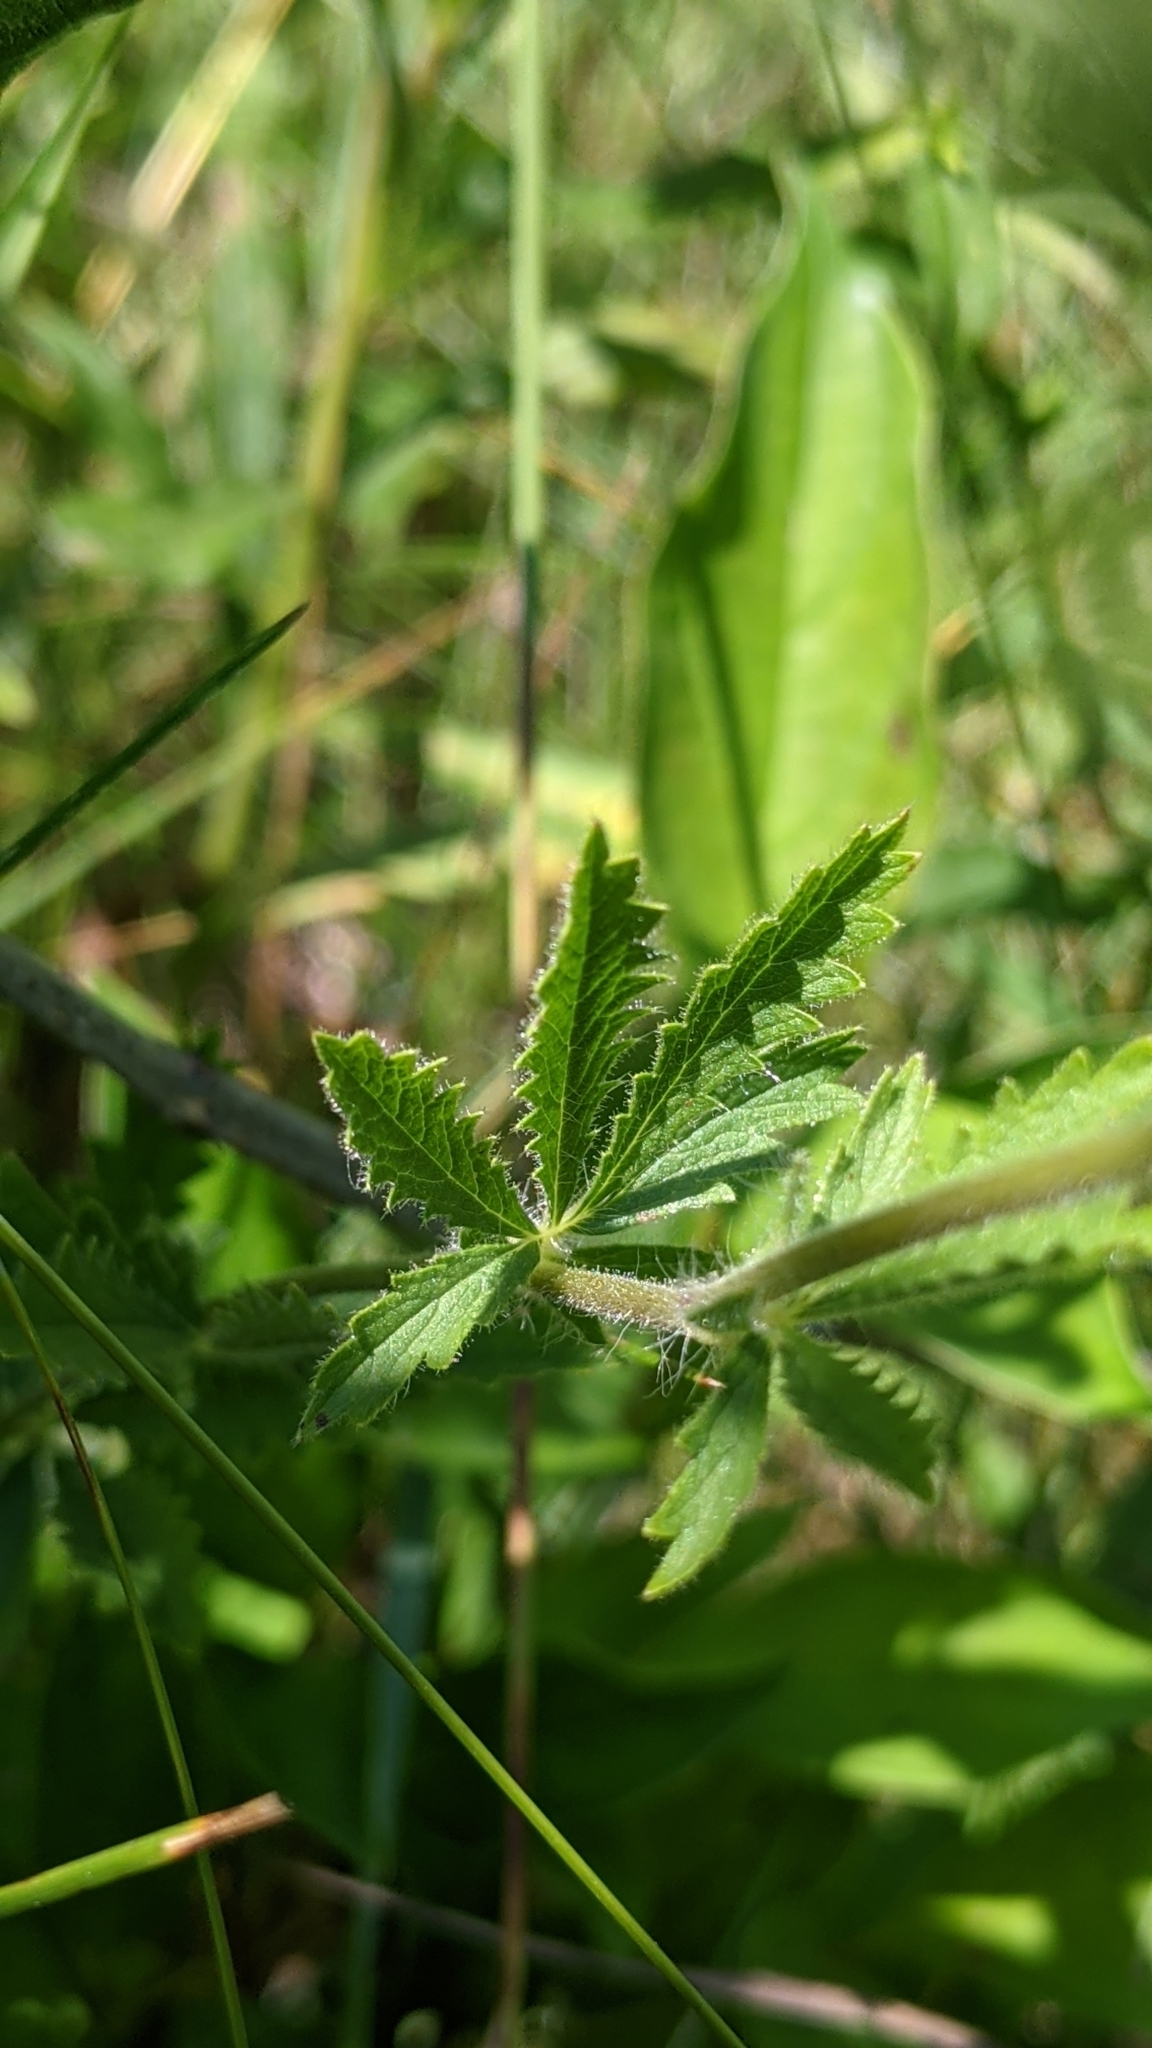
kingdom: Plantae
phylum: Tracheophyta
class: Magnoliopsida
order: Rosales
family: Rosaceae
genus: Potentilla
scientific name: Potentilla recta
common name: Sulphur cinquefoil
